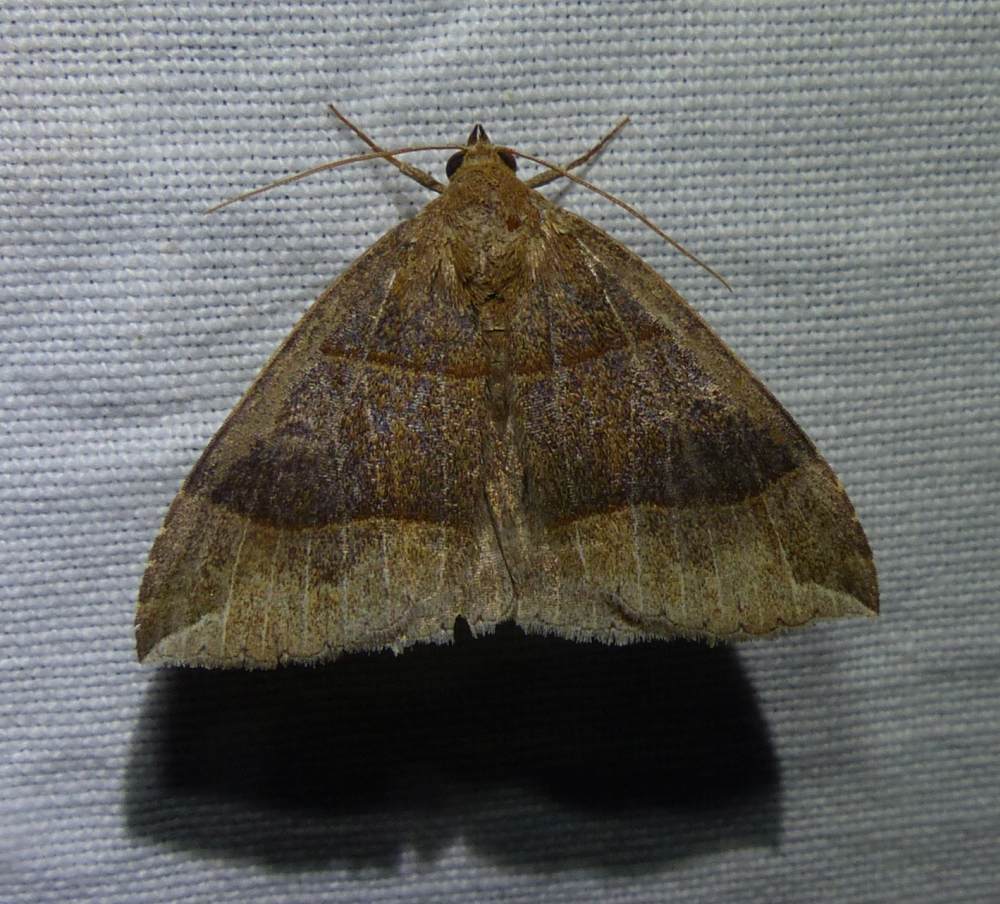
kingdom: Animalia
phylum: Arthropoda
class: Insecta
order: Lepidoptera
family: Erebidae
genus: Parallelia
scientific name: Parallelia bistriaris
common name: Maple looper moth
